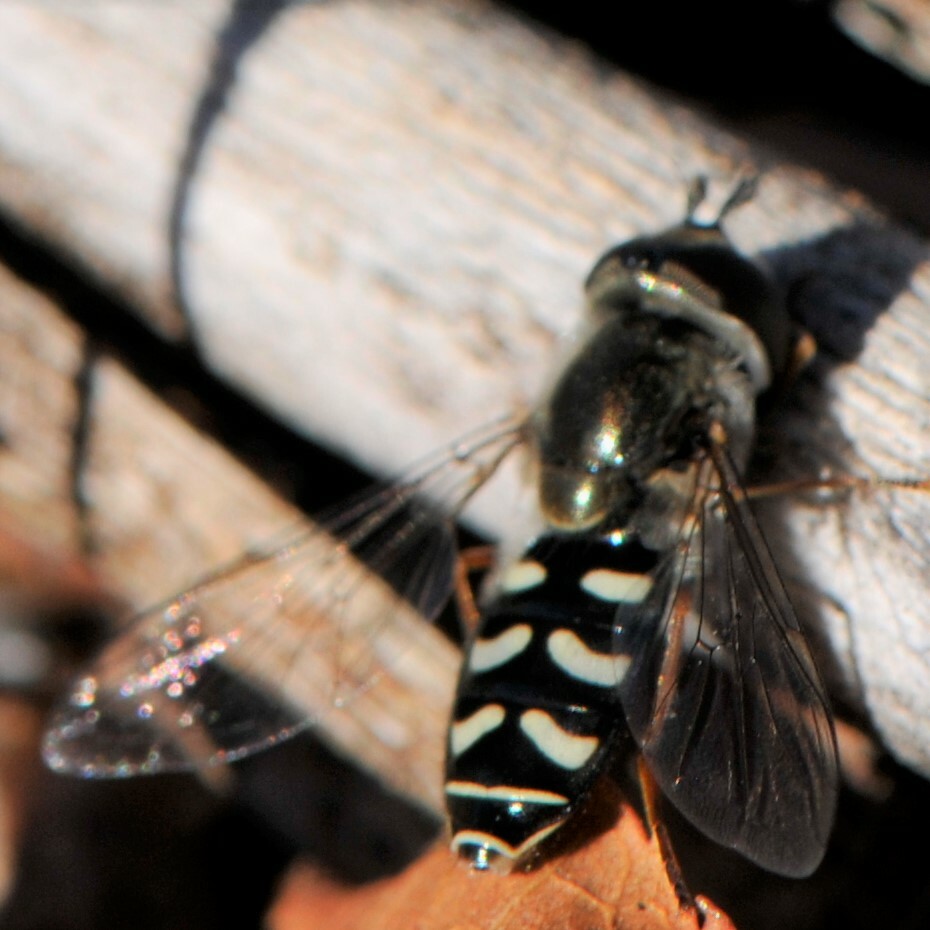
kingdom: Animalia
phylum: Arthropoda
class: Insecta
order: Diptera
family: Syrphidae
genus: Eupeodes
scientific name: Eupeodes volucris
